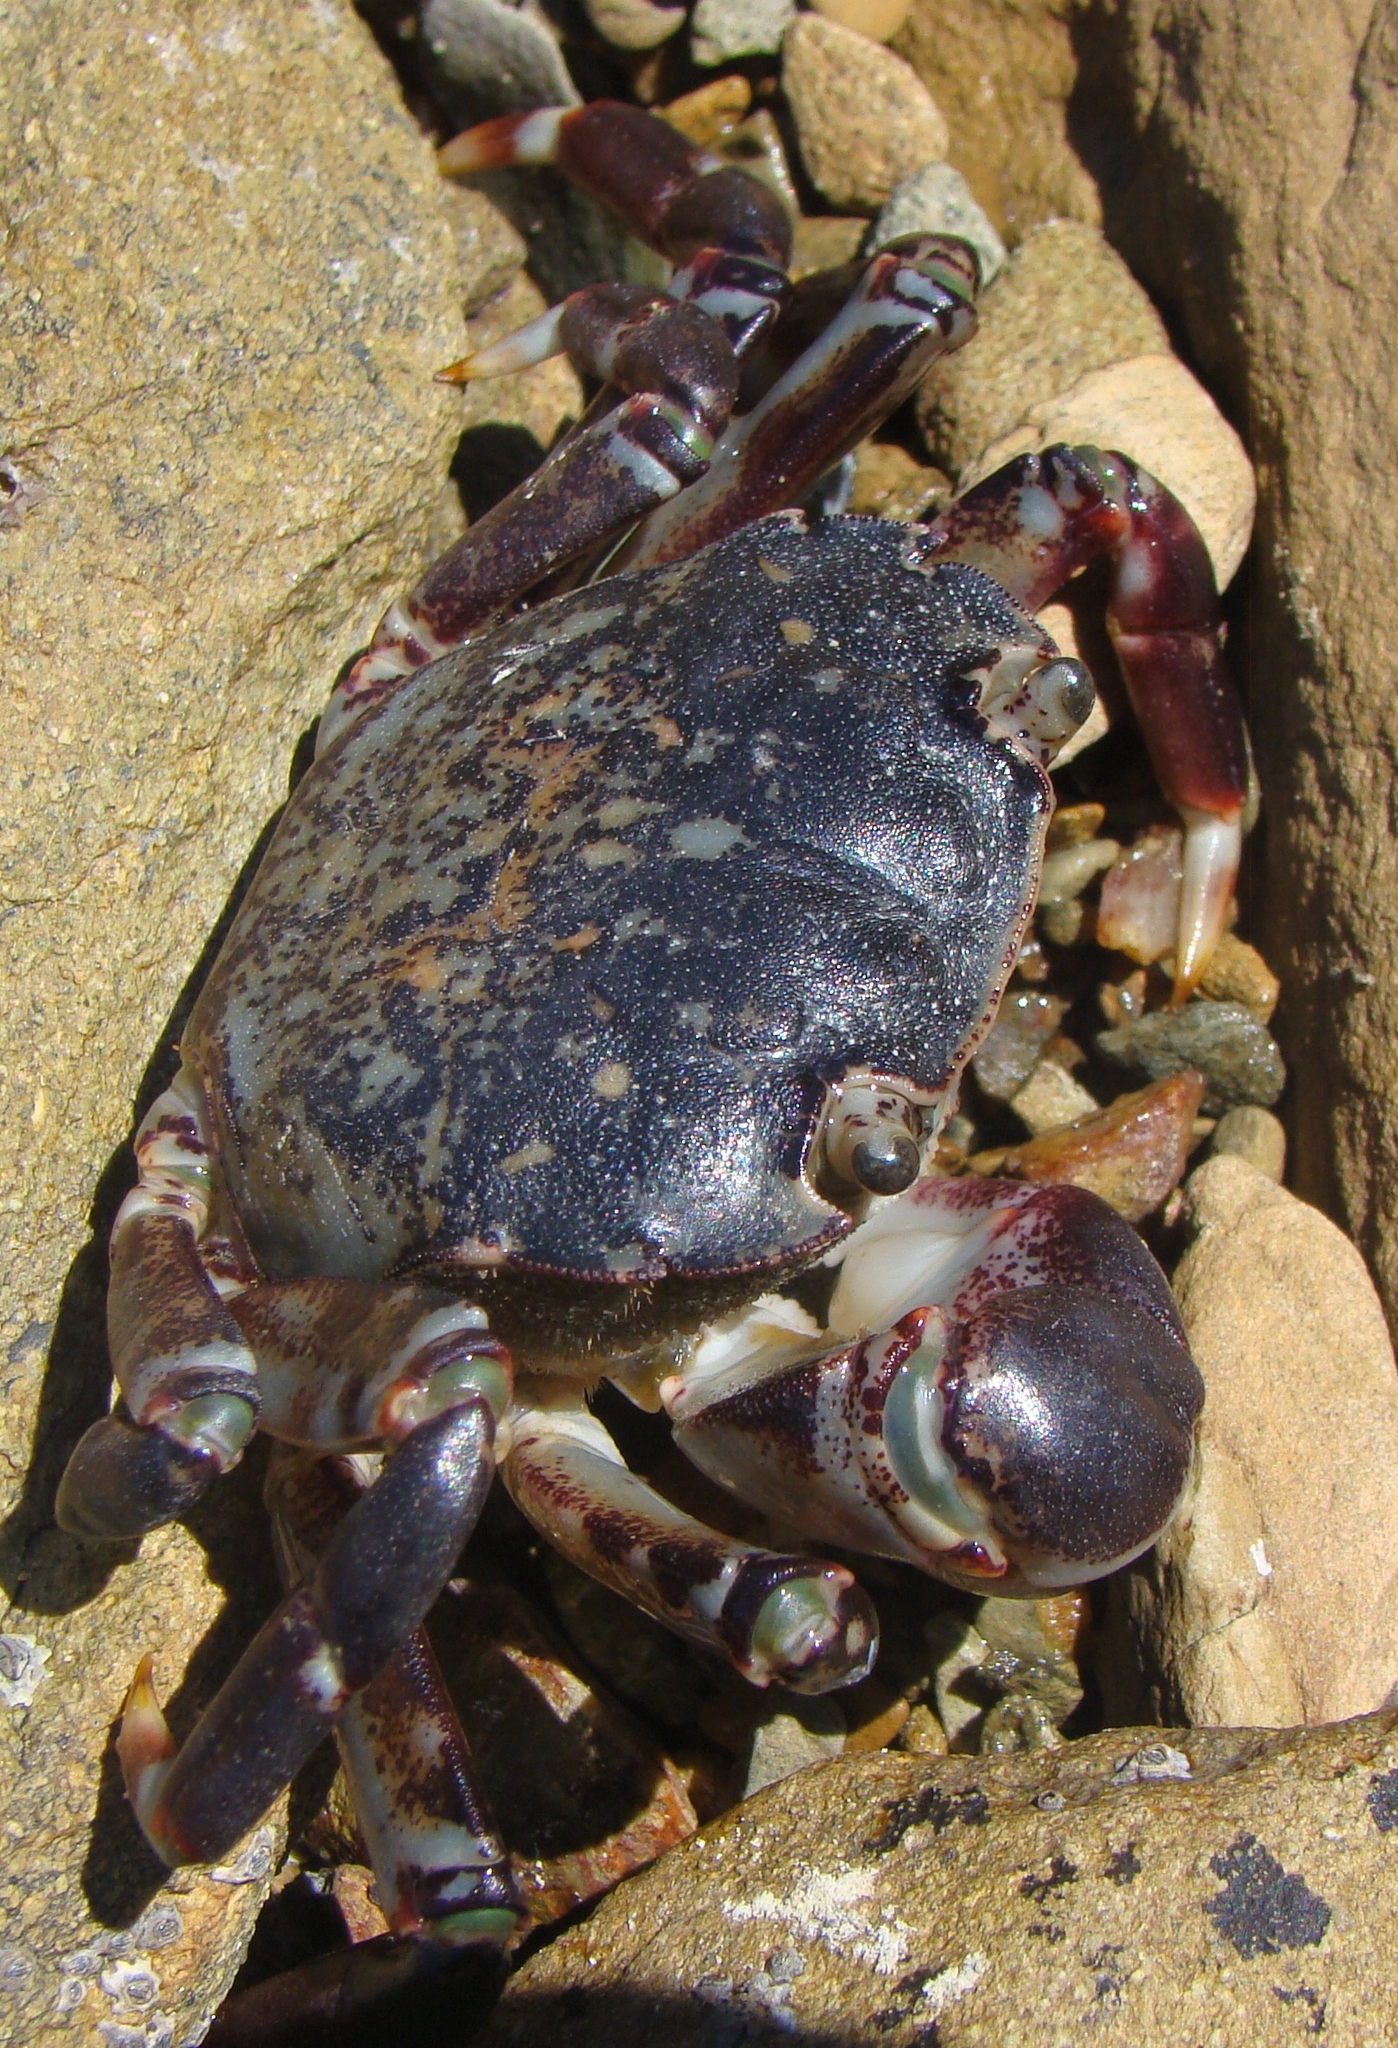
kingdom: Animalia
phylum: Arthropoda
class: Malacostraca
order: Decapoda
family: Varunidae
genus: Hemigrapsus
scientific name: Hemigrapsus sexdentatus
